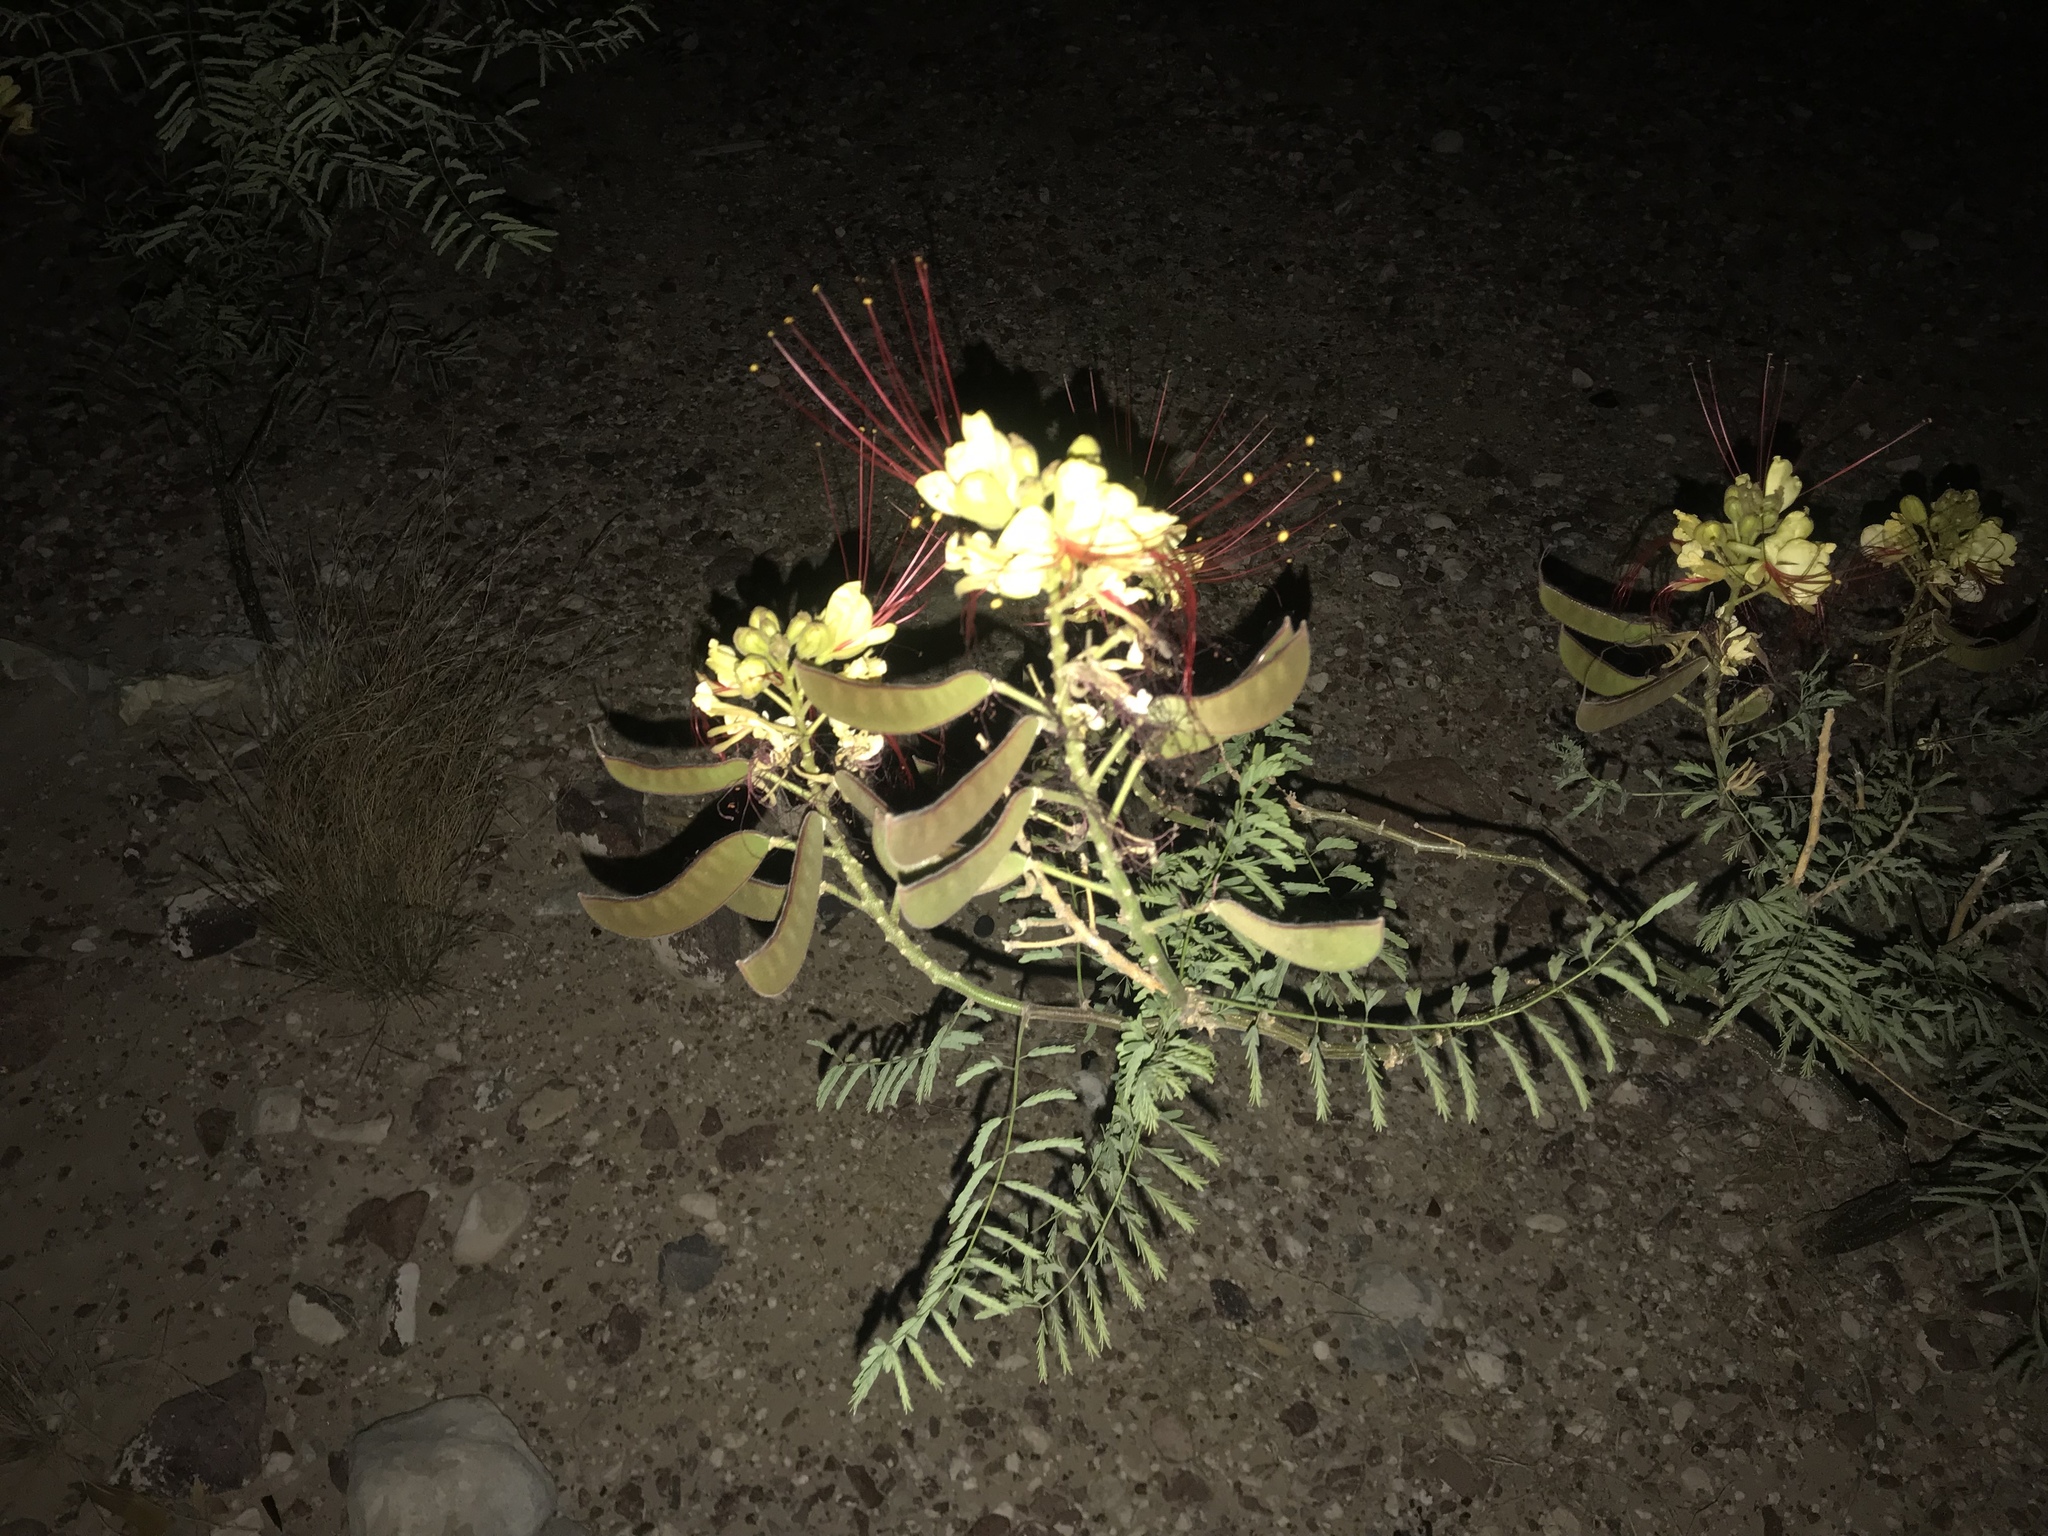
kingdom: Plantae
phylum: Tracheophyta
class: Magnoliopsida
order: Fabales
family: Fabaceae
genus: Erythrostemon
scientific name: Erythrostemon gilliesii
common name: Bird-of-paradise shrub
